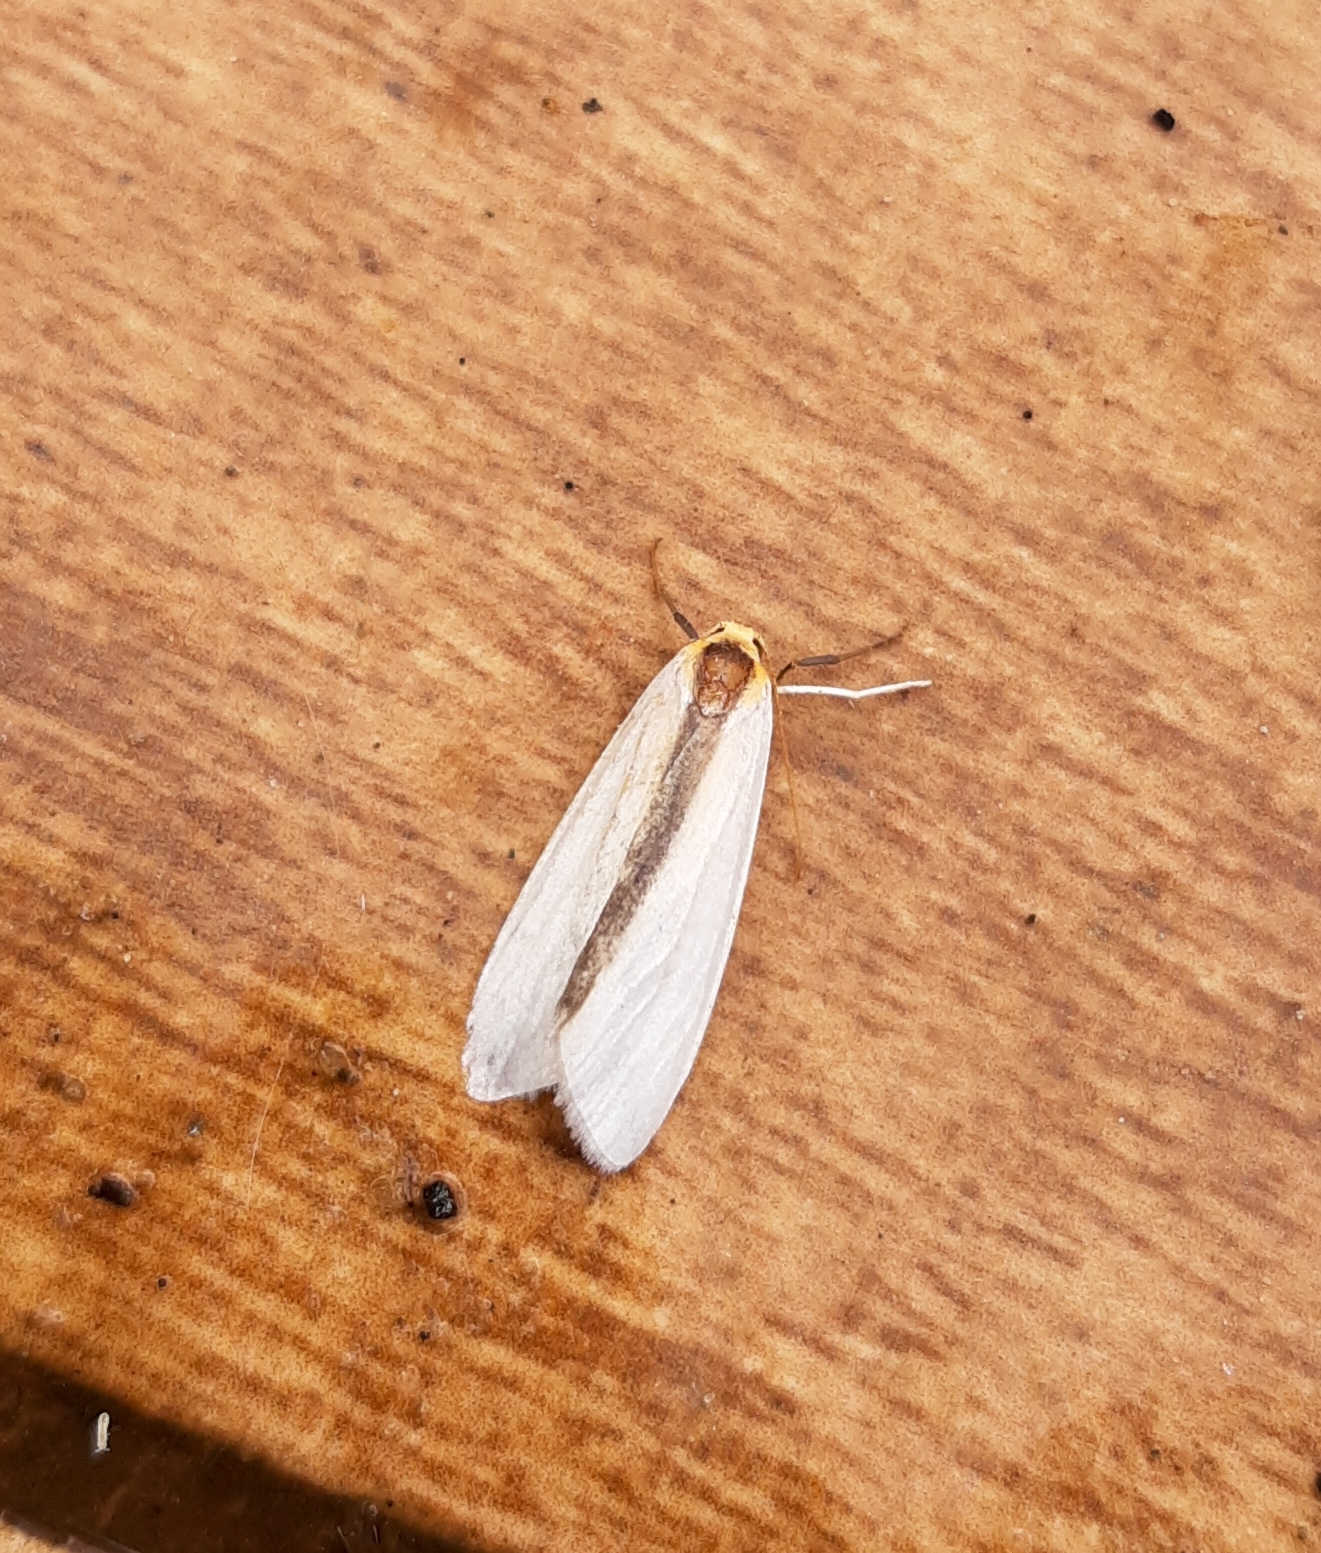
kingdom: Animalia
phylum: Arthropoda
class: Insecta
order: Lepidoptera
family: Erebidae
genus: Agylla
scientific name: Agylla separata
